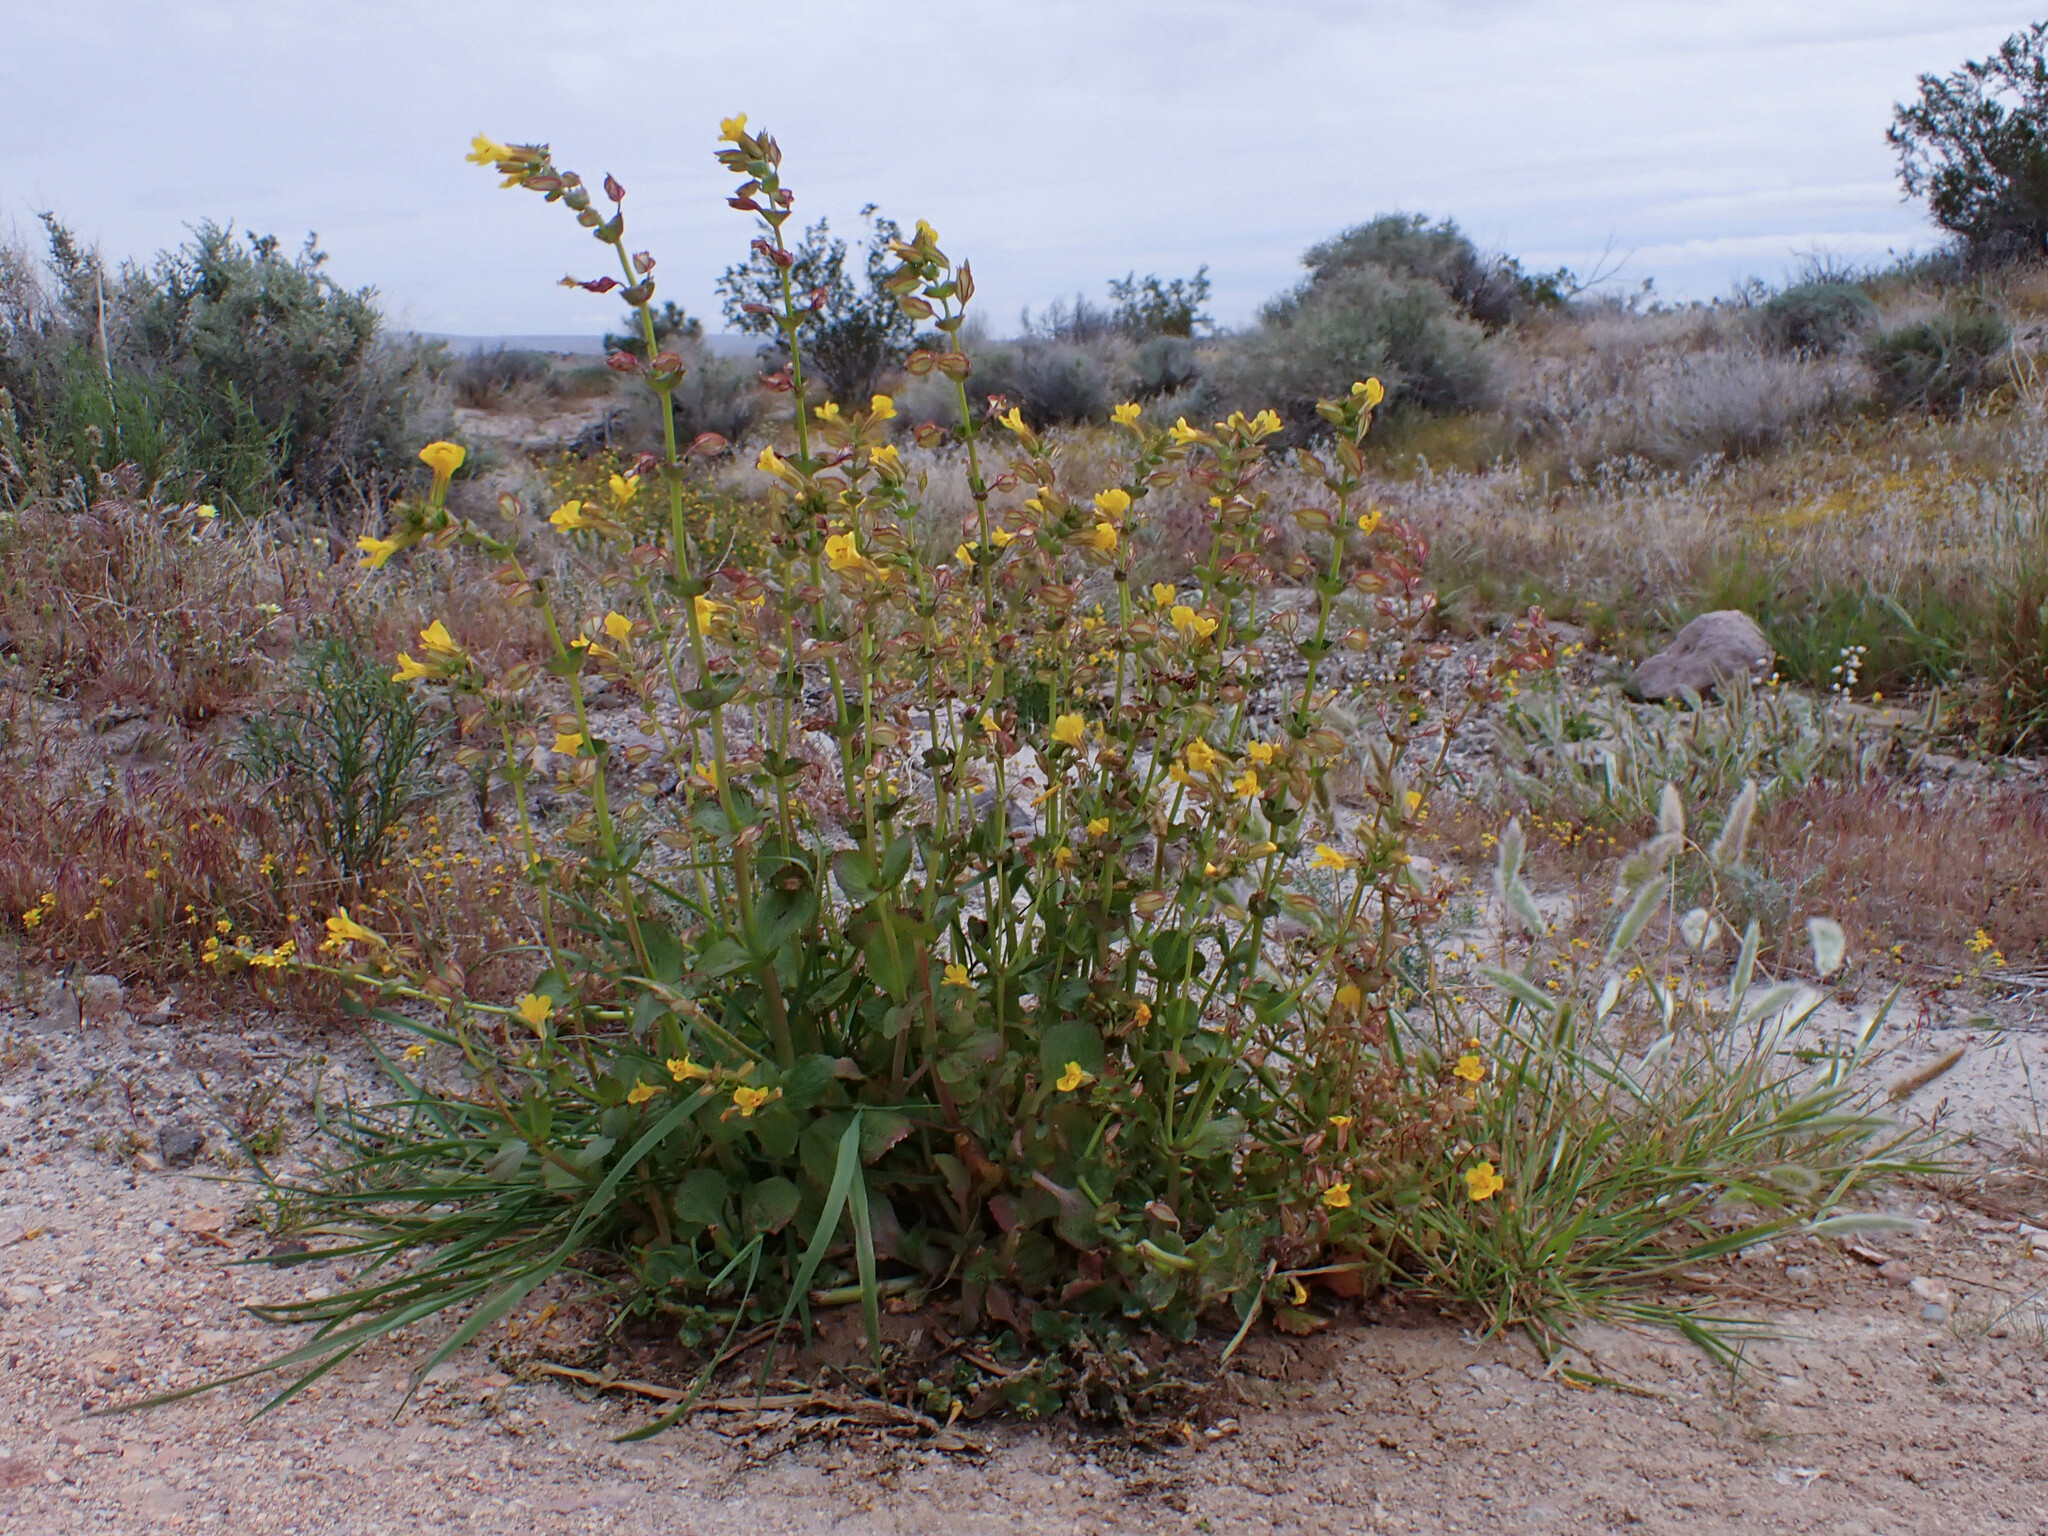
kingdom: Plantae
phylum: Tracheophyta
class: Magnoliopsida
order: Lamiales
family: Phrymaceae
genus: Erythranthe
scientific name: Erythranthe guttata
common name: Monkeyflower
